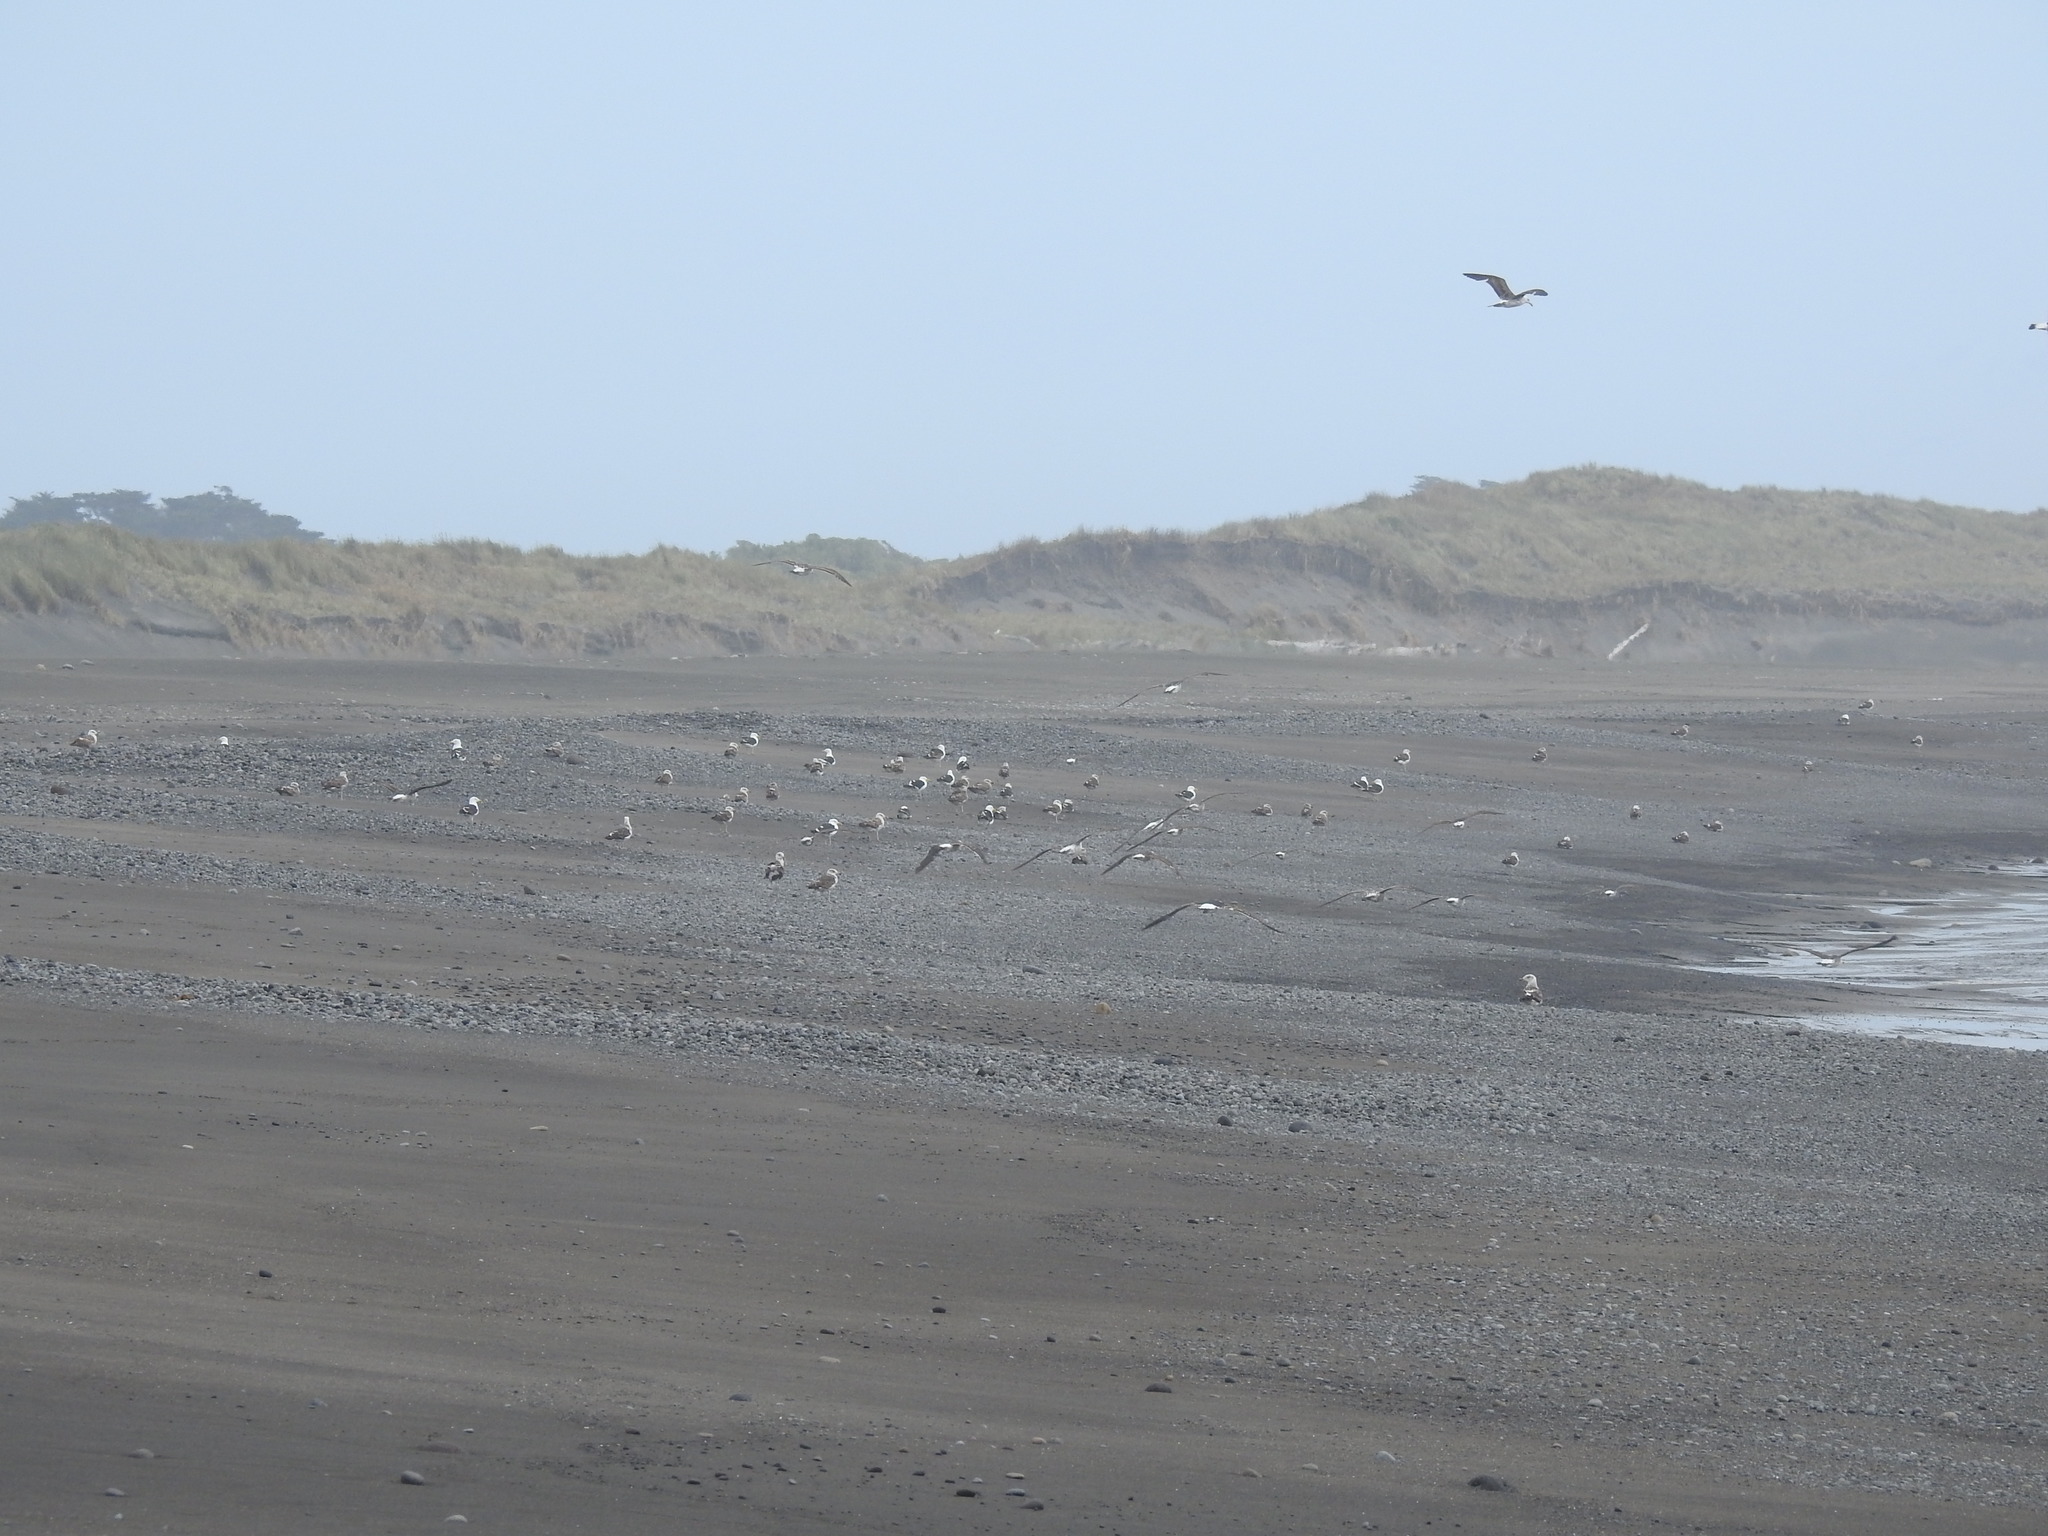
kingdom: Animalia
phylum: Chordata
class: Aves
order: Charadriiformes
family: Laridae
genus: Larus
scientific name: Larus dominicanus
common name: Kelp gull
